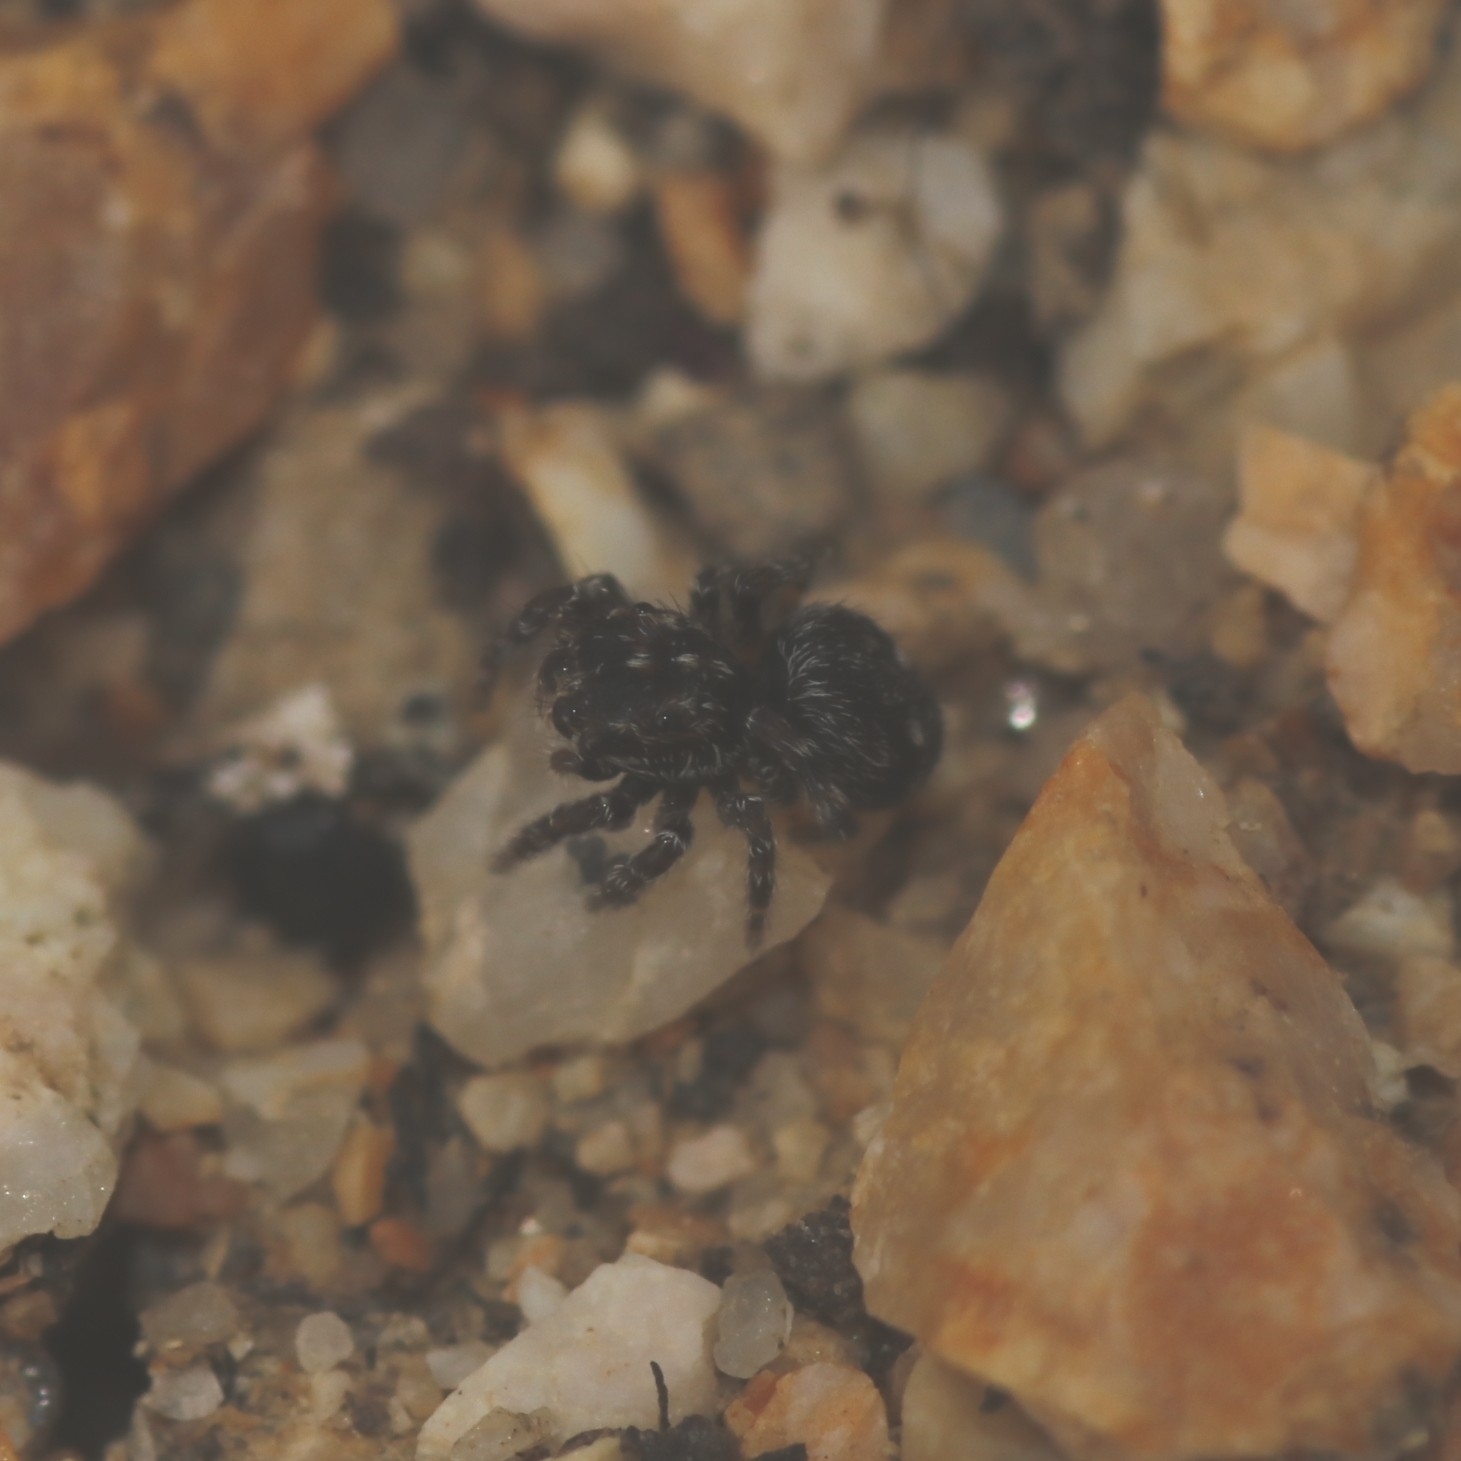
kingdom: Animalia
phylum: Arthropoda
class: Arachnida
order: Araneae
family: Salticidae
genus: Attulus
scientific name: Attulus pubescens
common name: Jumping spider
